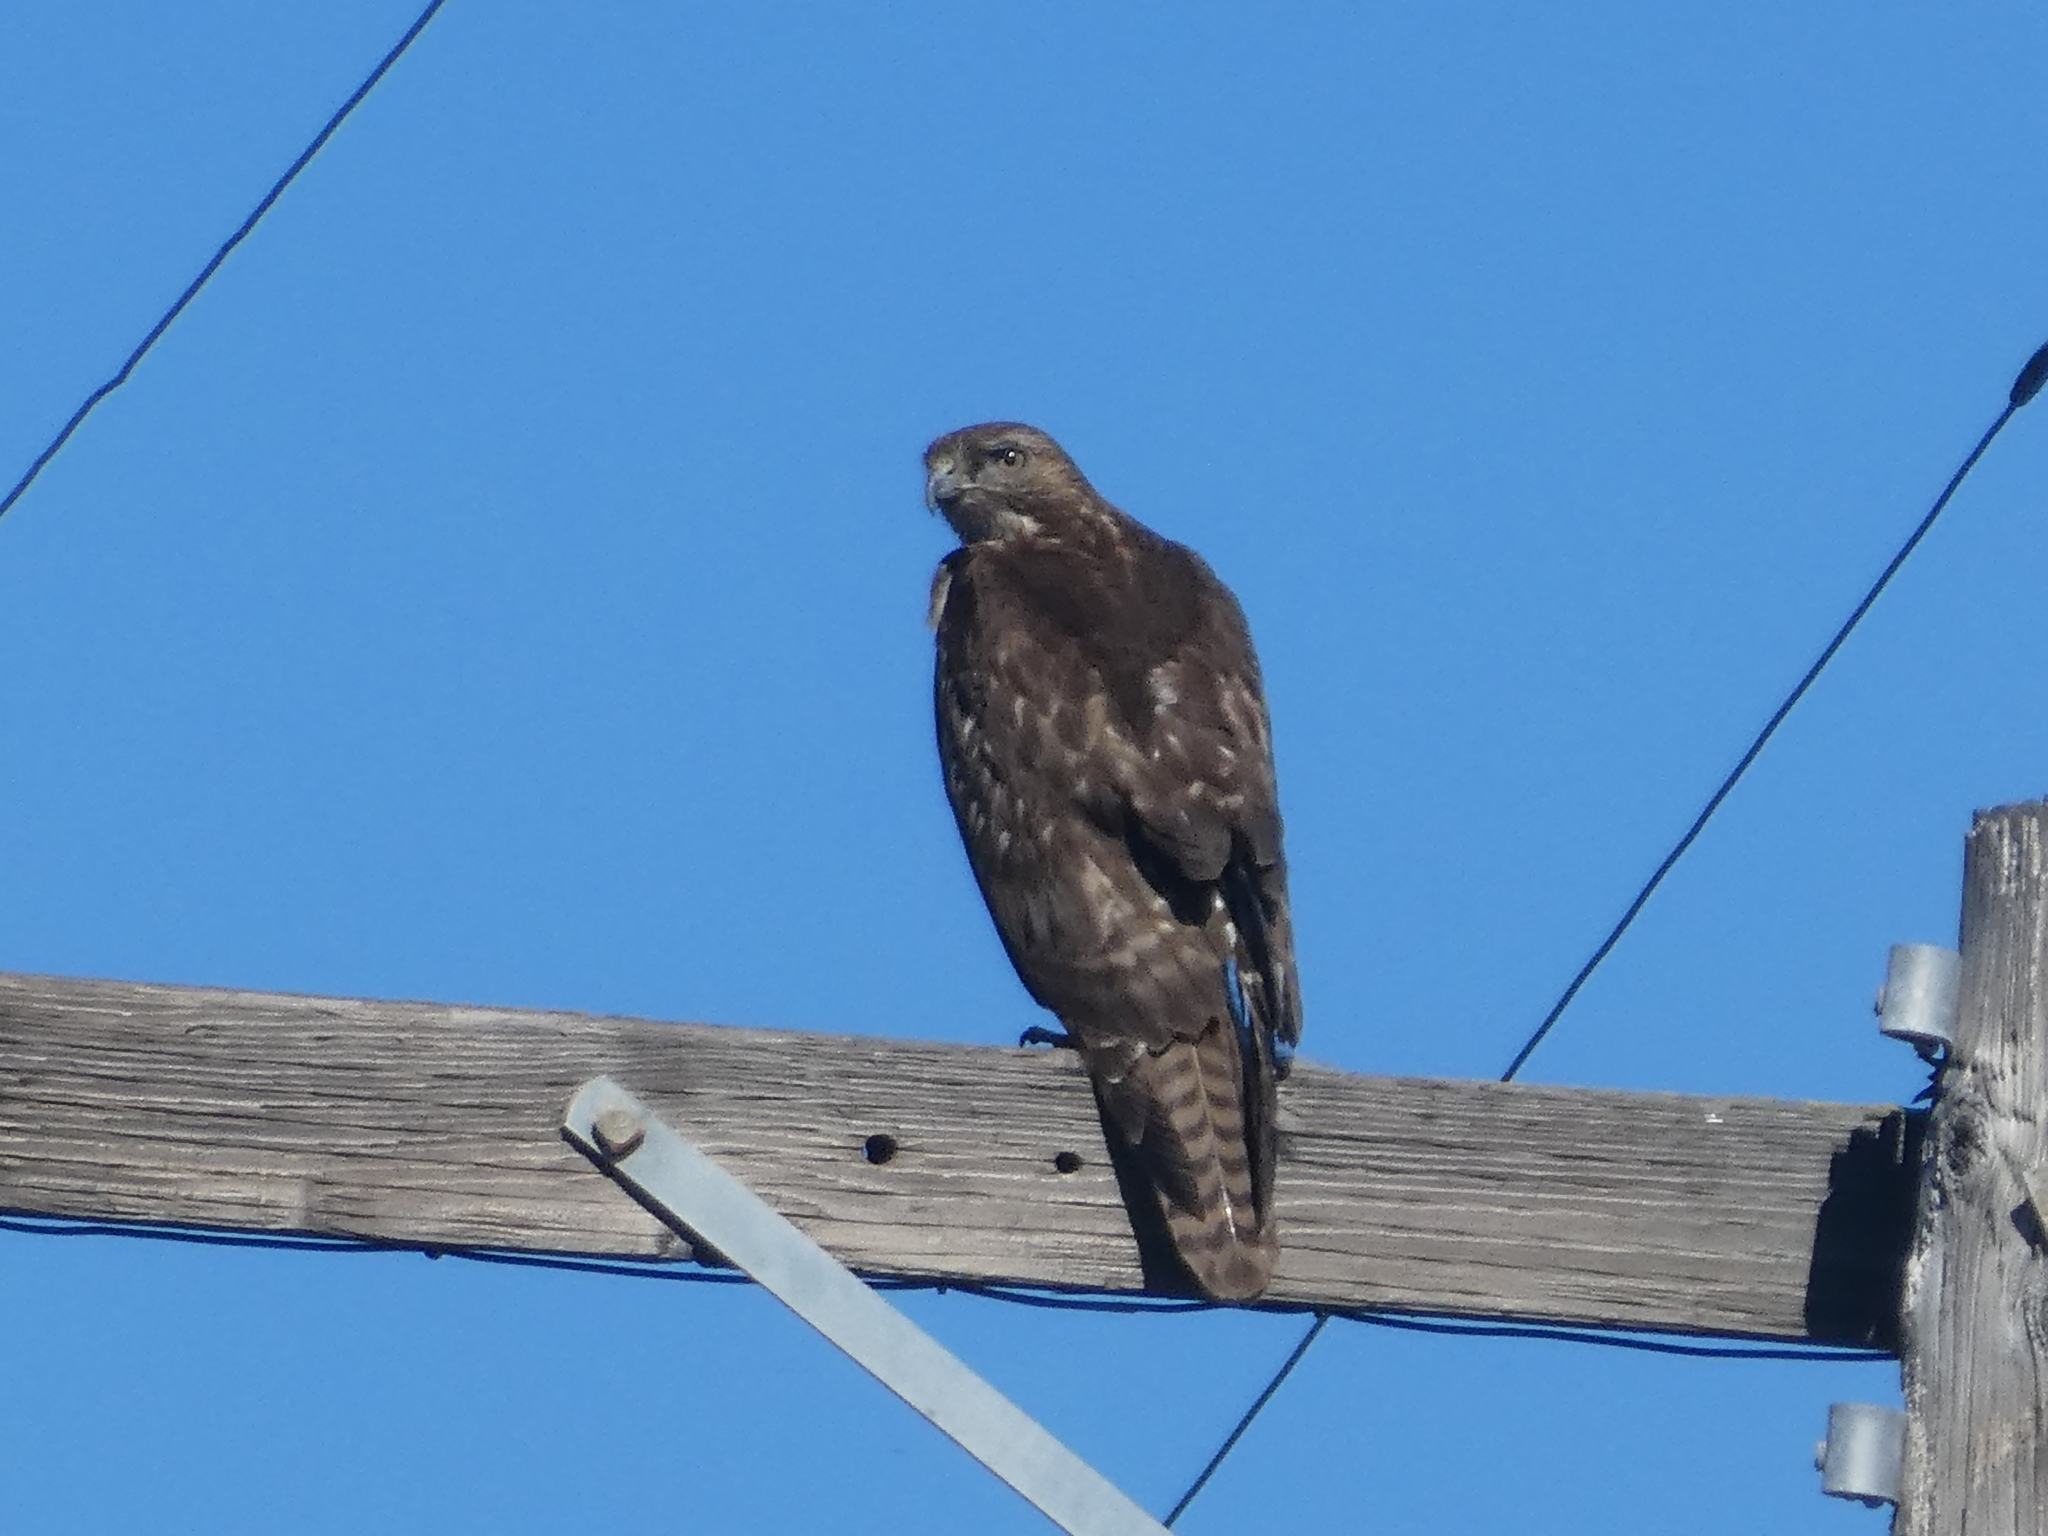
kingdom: Animalia
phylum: Chordata
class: Aves
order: Accipitriformes
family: Accipitridae
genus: Buteo
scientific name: Buteo jamaicensis
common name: Red-tailed hawk
